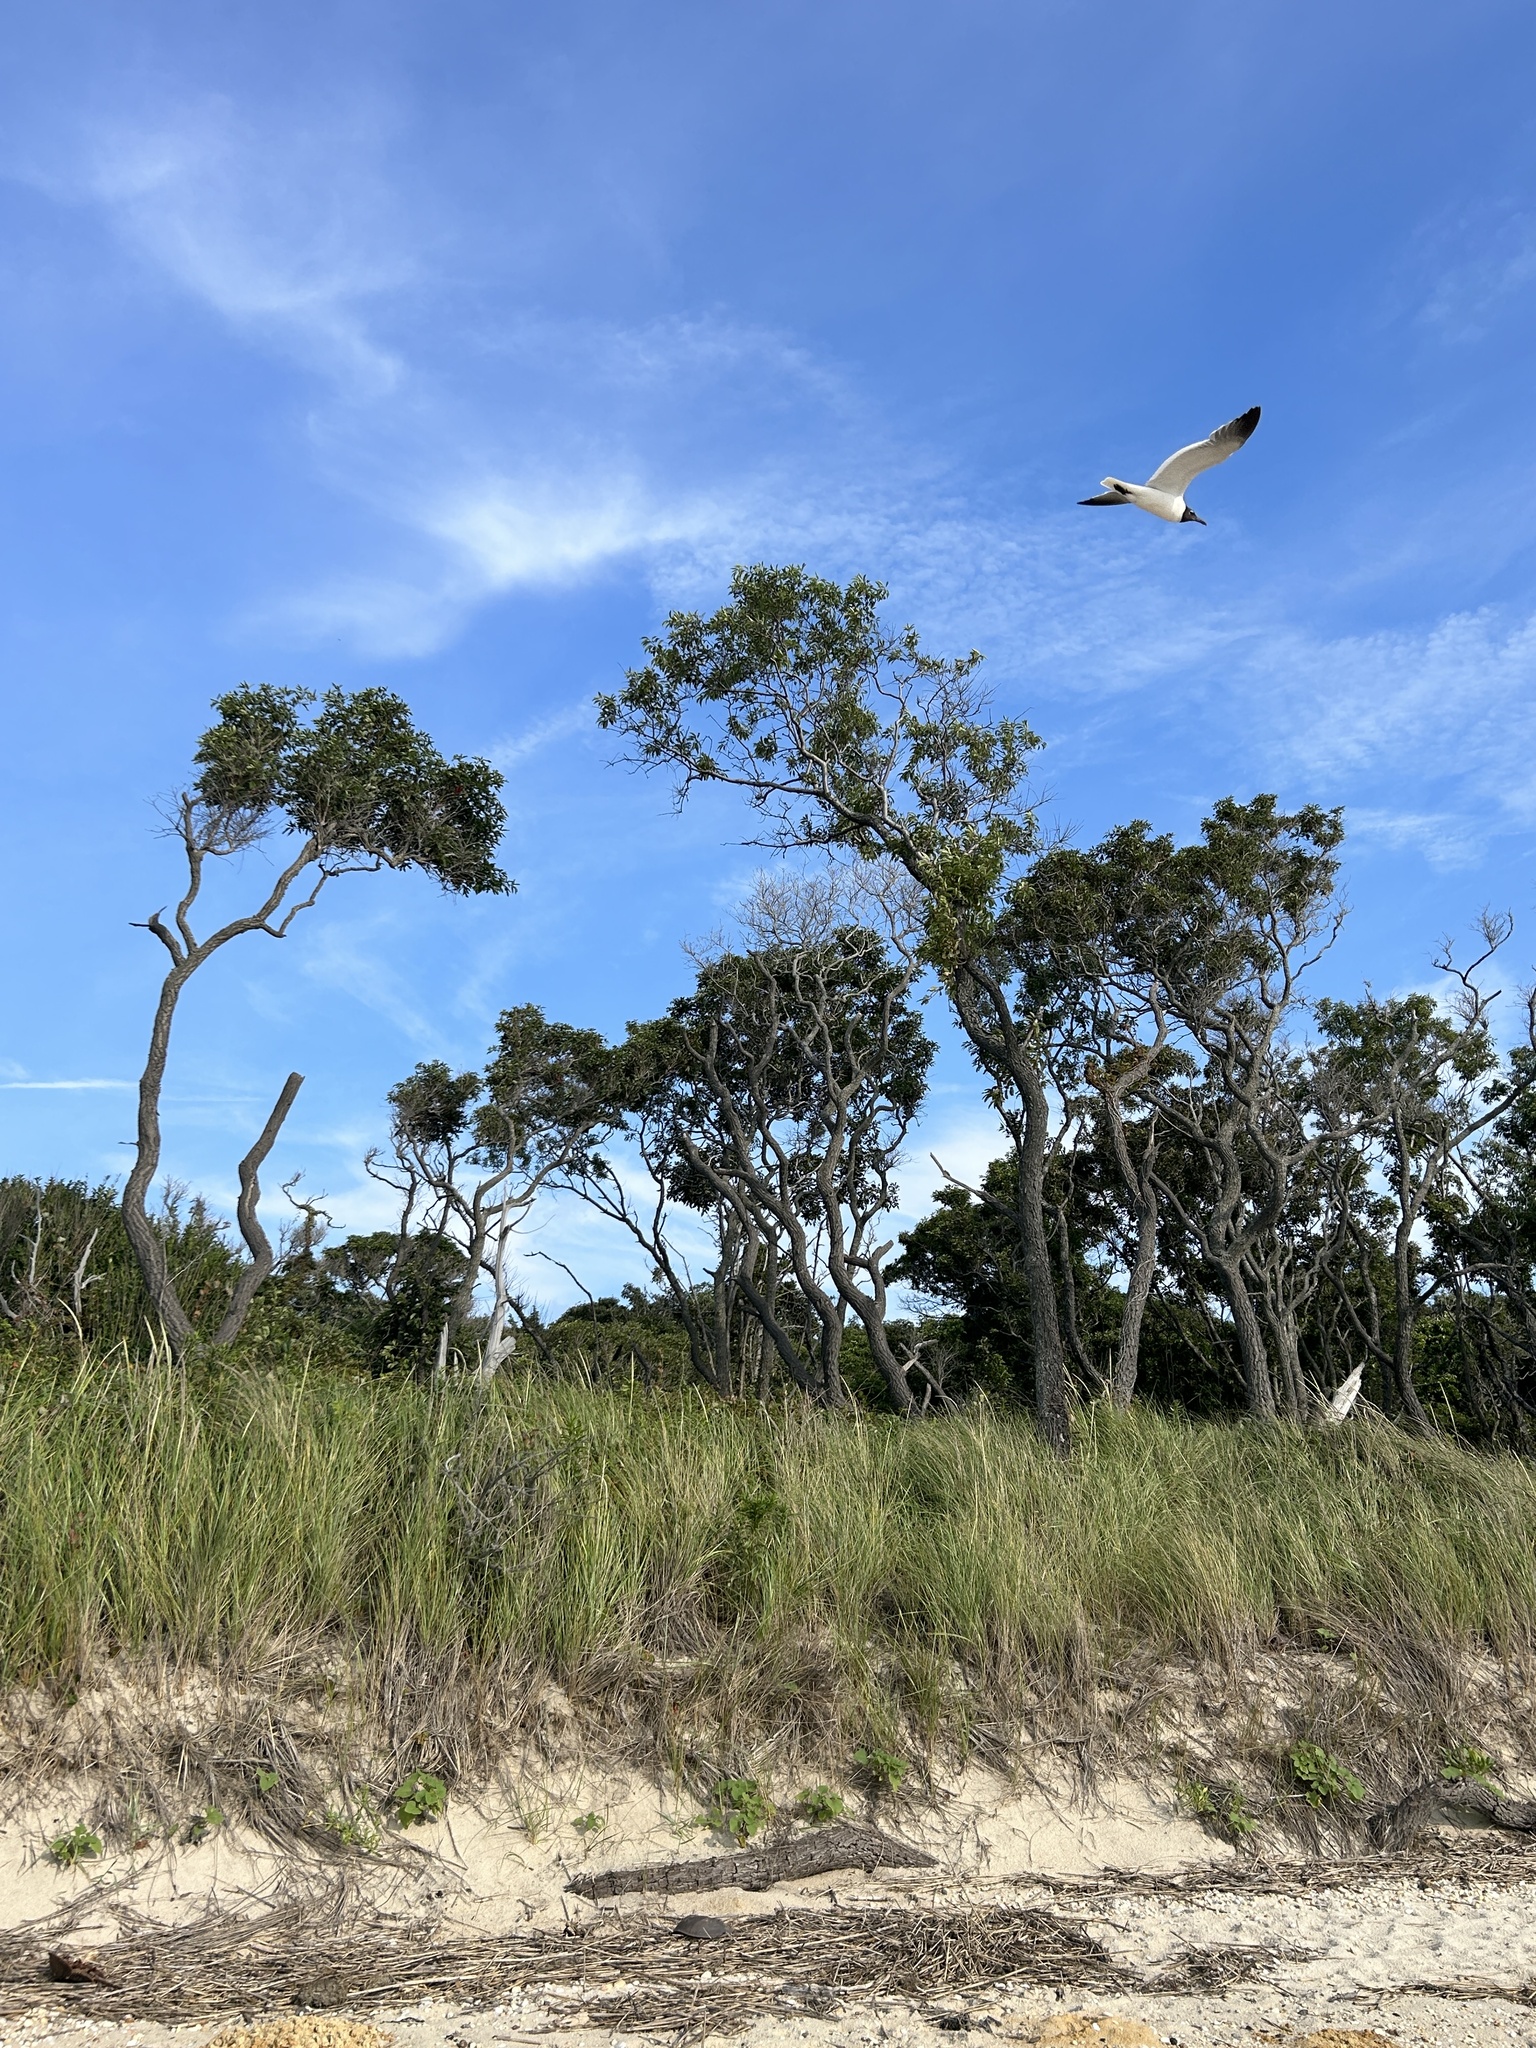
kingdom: Plantae
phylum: Tracheophyta
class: Magnoliopsida
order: Ericales
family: Ebenaceae
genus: Diospyros
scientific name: Diospyros virginiana
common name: Persimmon
